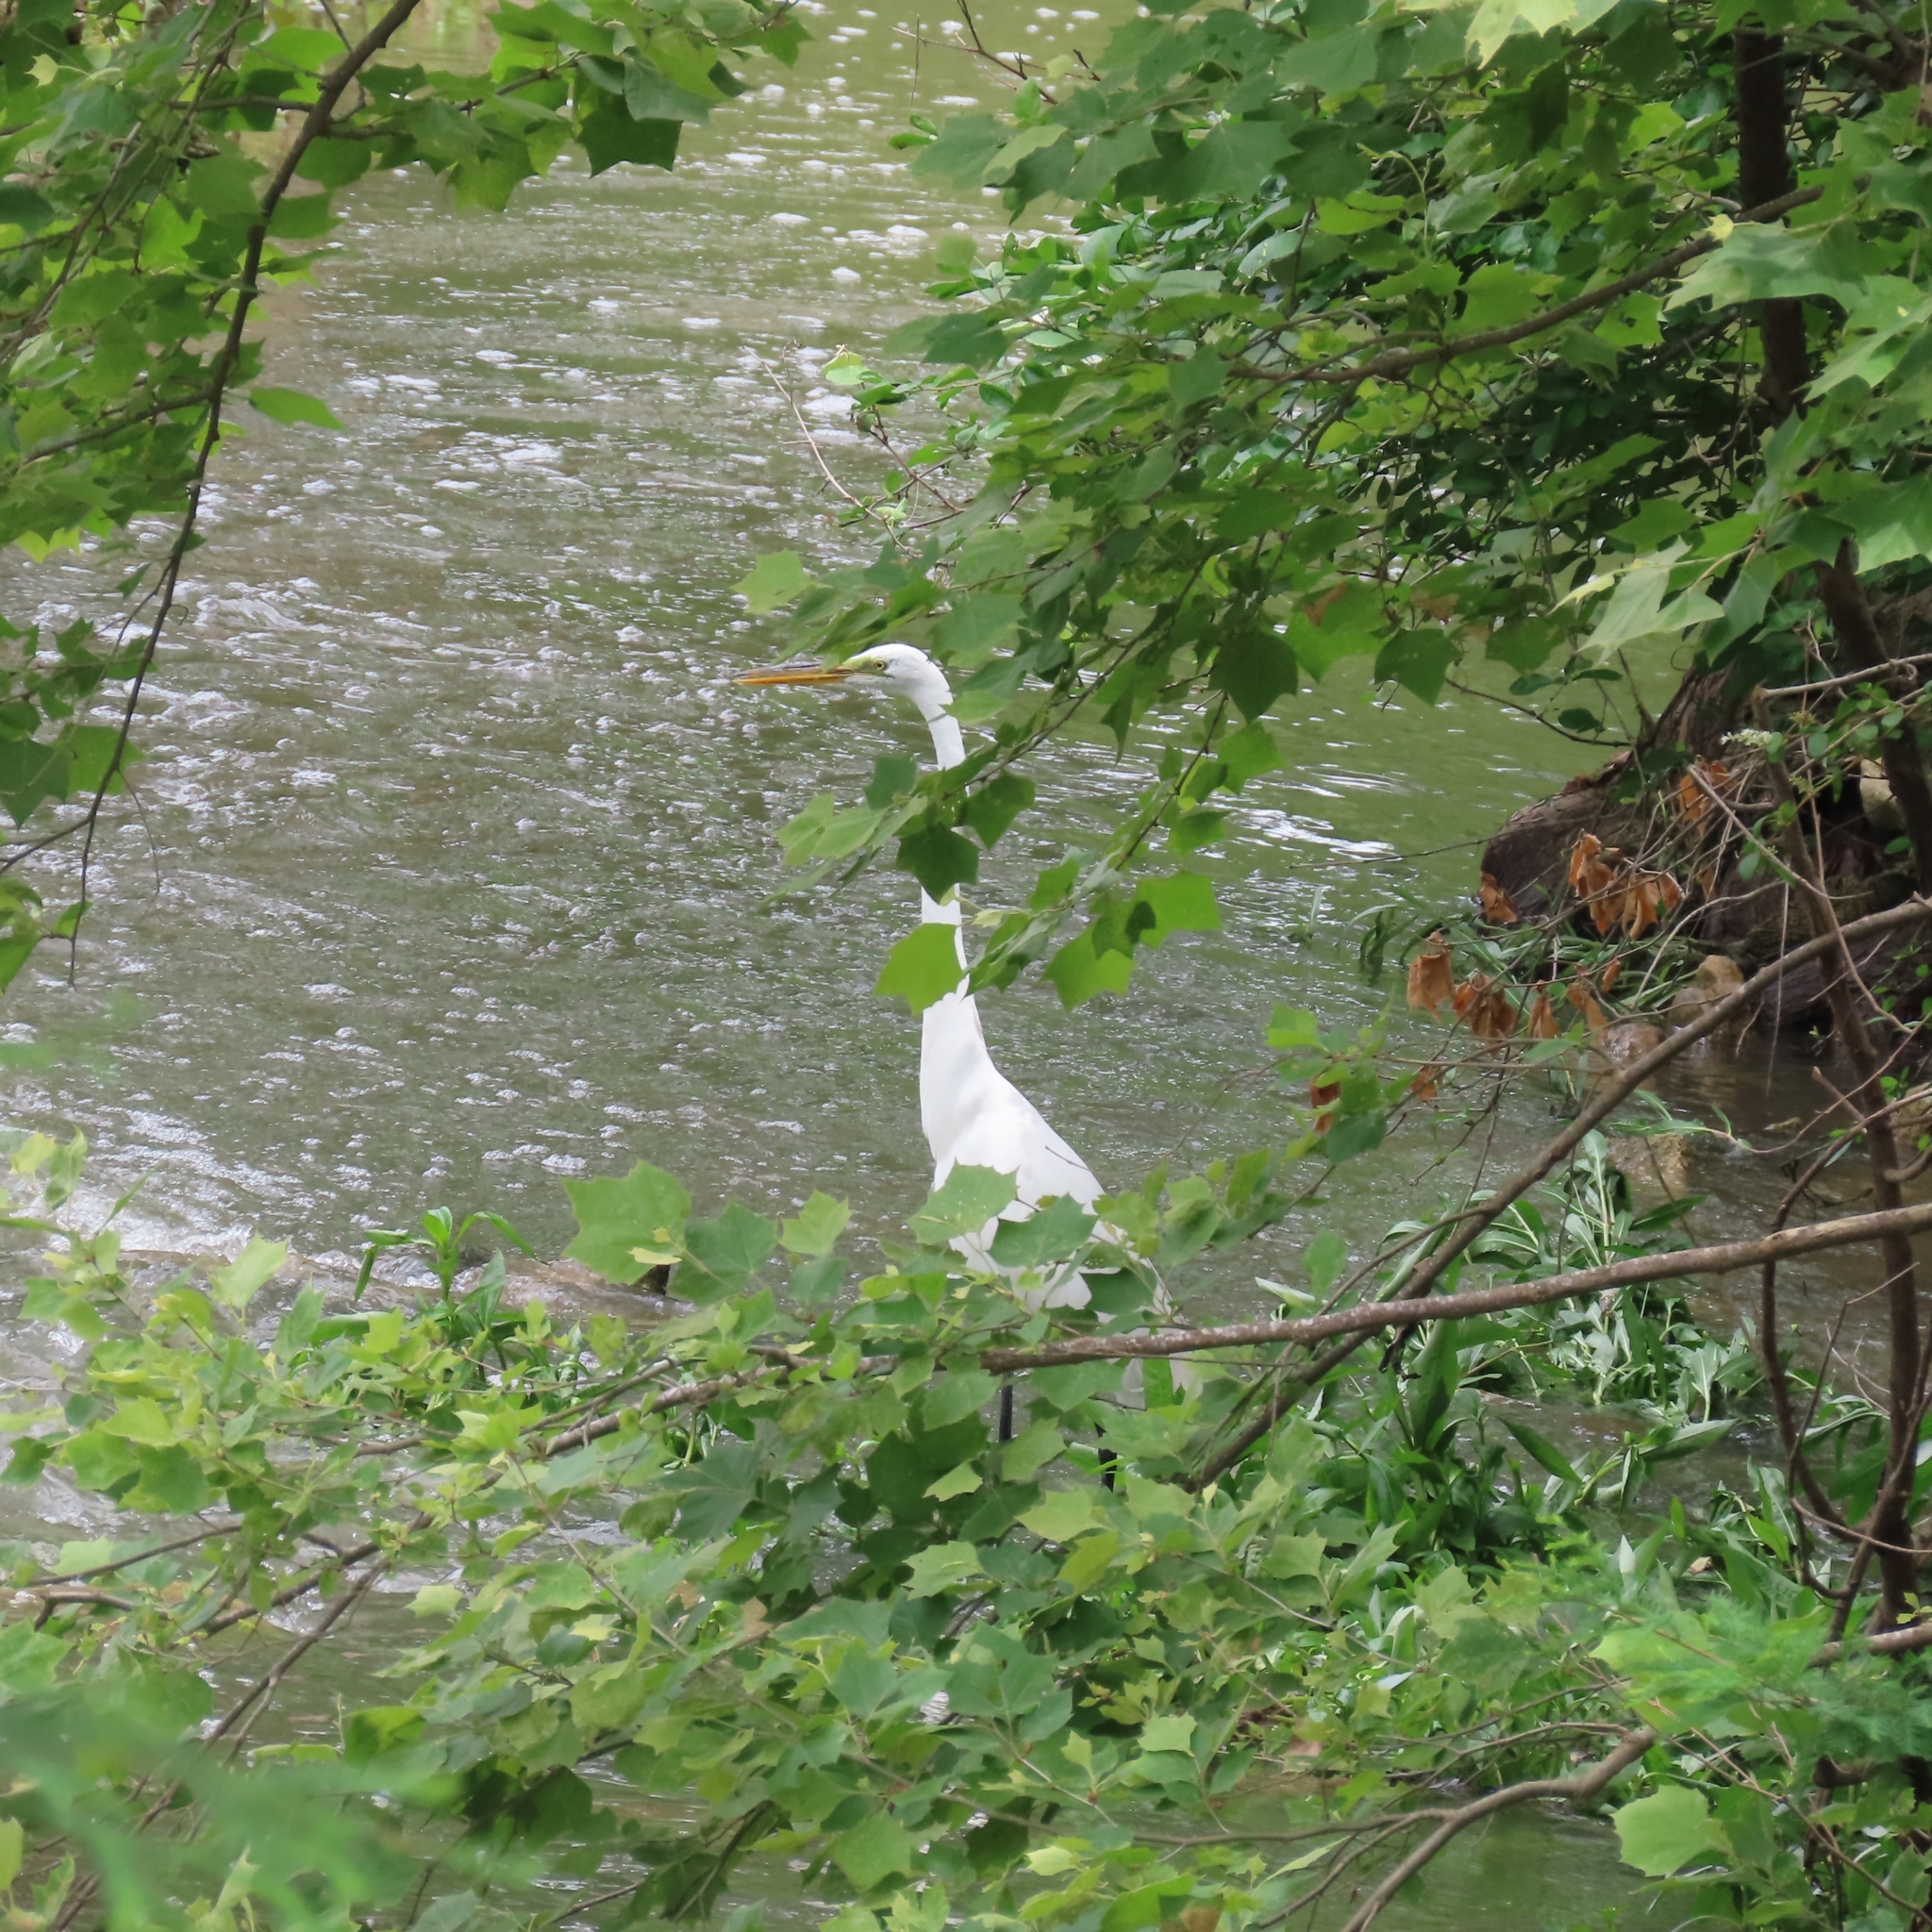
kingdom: Animalia
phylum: Chordata
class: Aves
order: Pelecaniformes
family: Ardeidae
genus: Ardea
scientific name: Ardea alba
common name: Great egret
